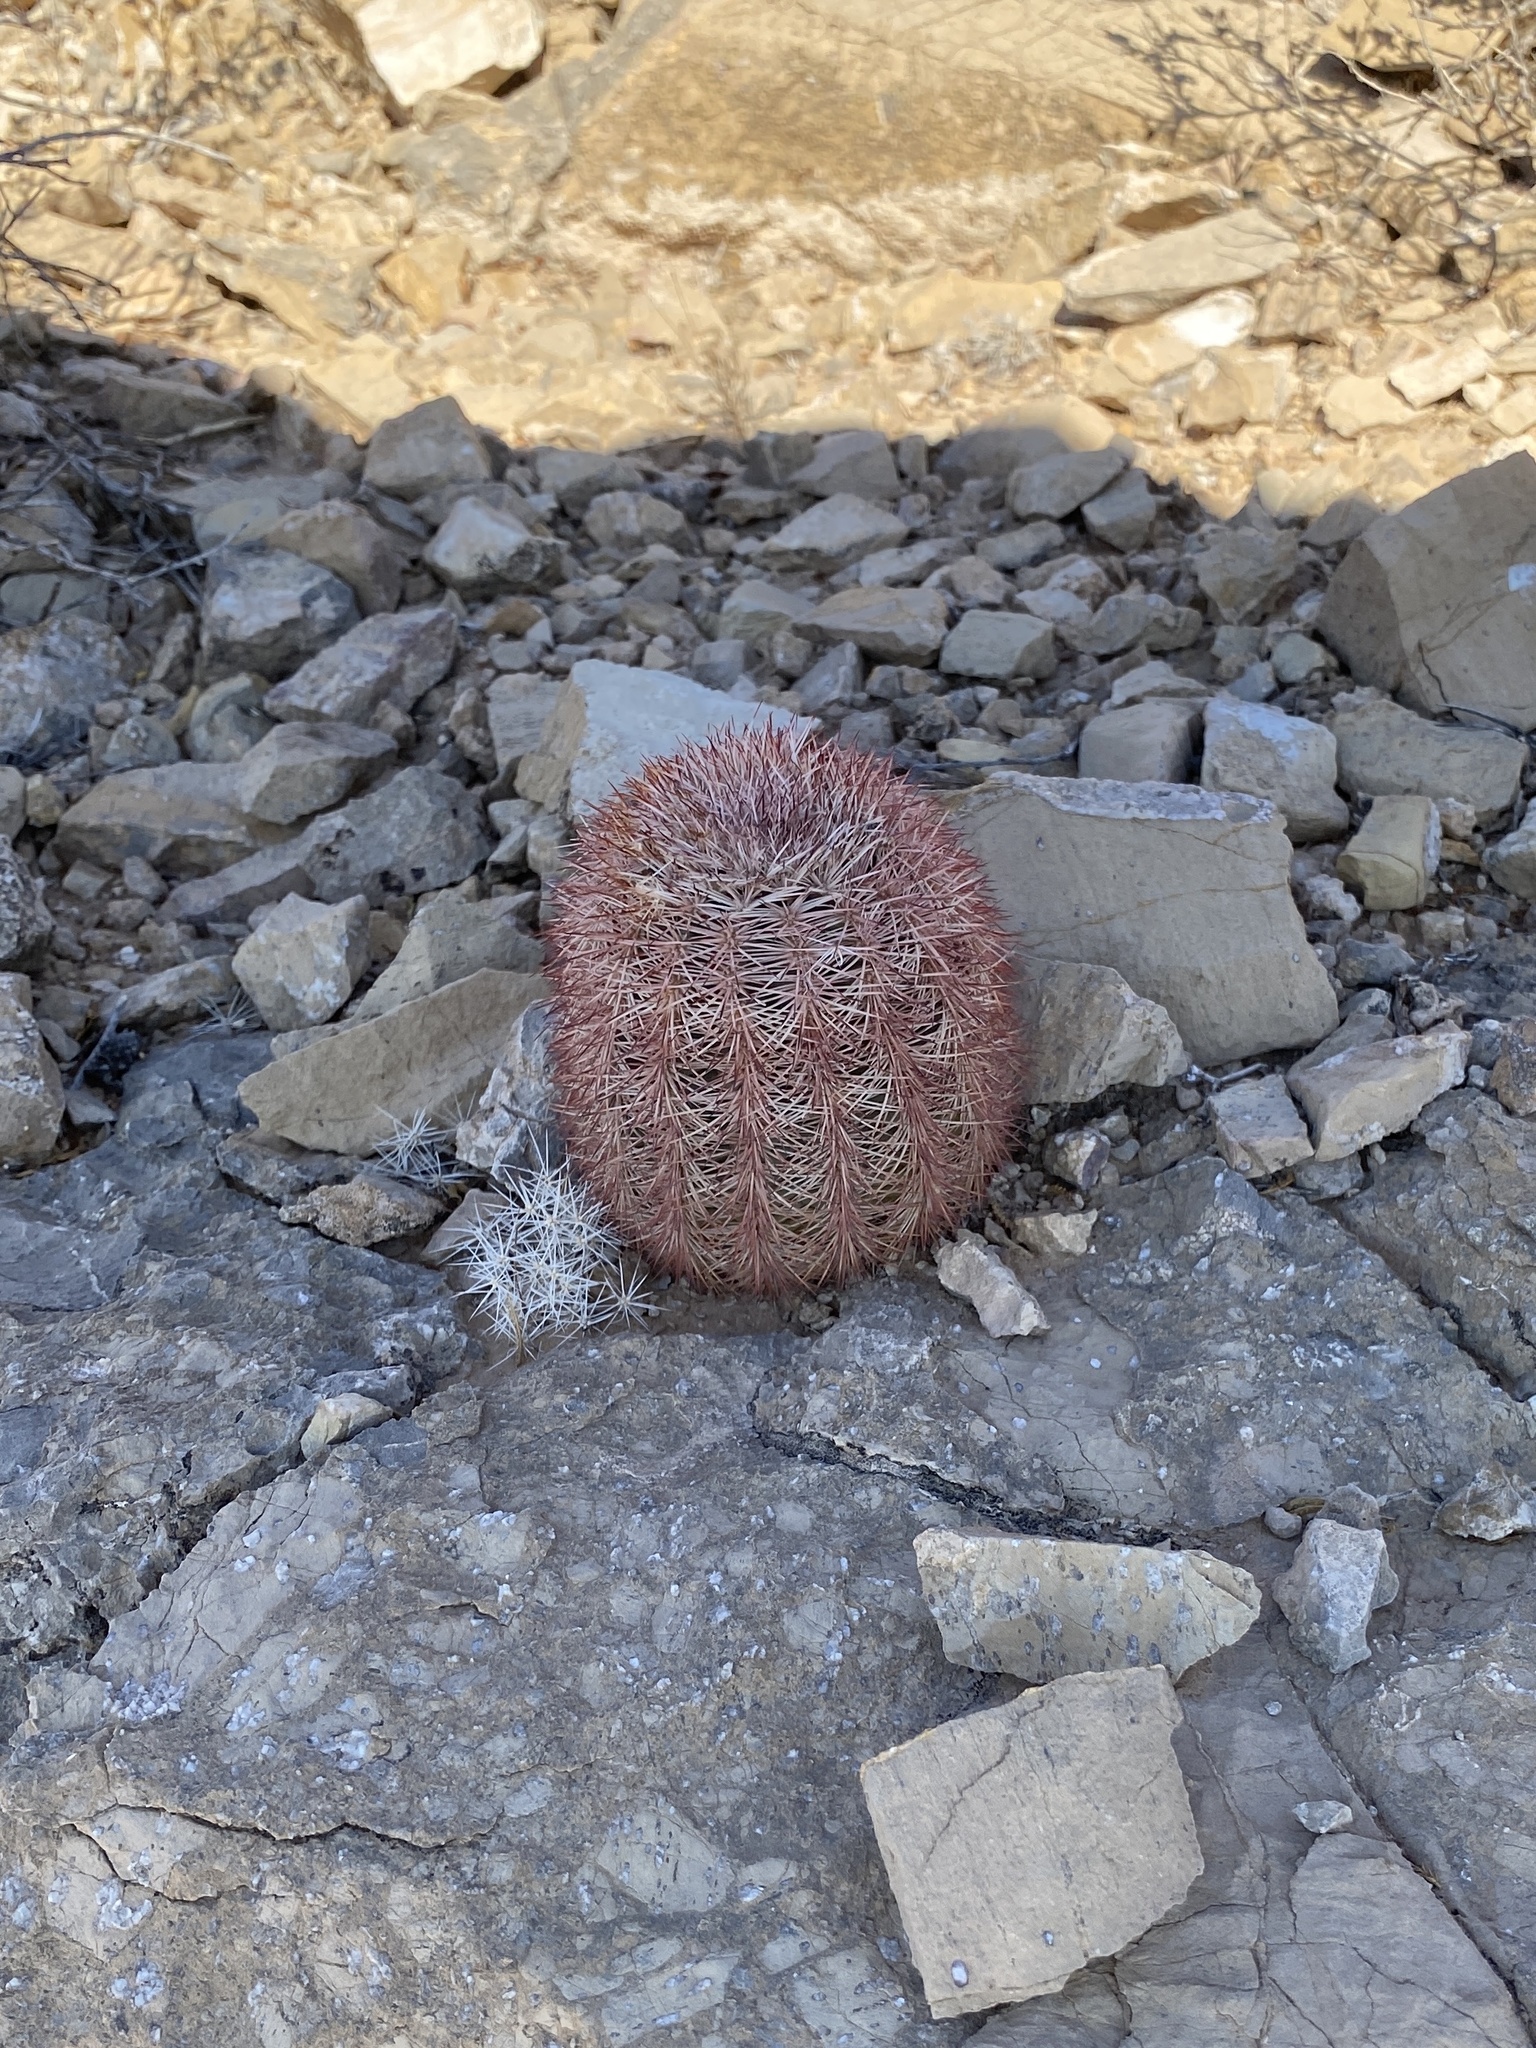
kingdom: Plantae
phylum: Tracheophyta
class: Magnoliopsida
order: Caryophyllales
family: Cactaceae
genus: Echinocereus
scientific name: Echinocereus dasyacanthus
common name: Spiny hedgehog cactus
